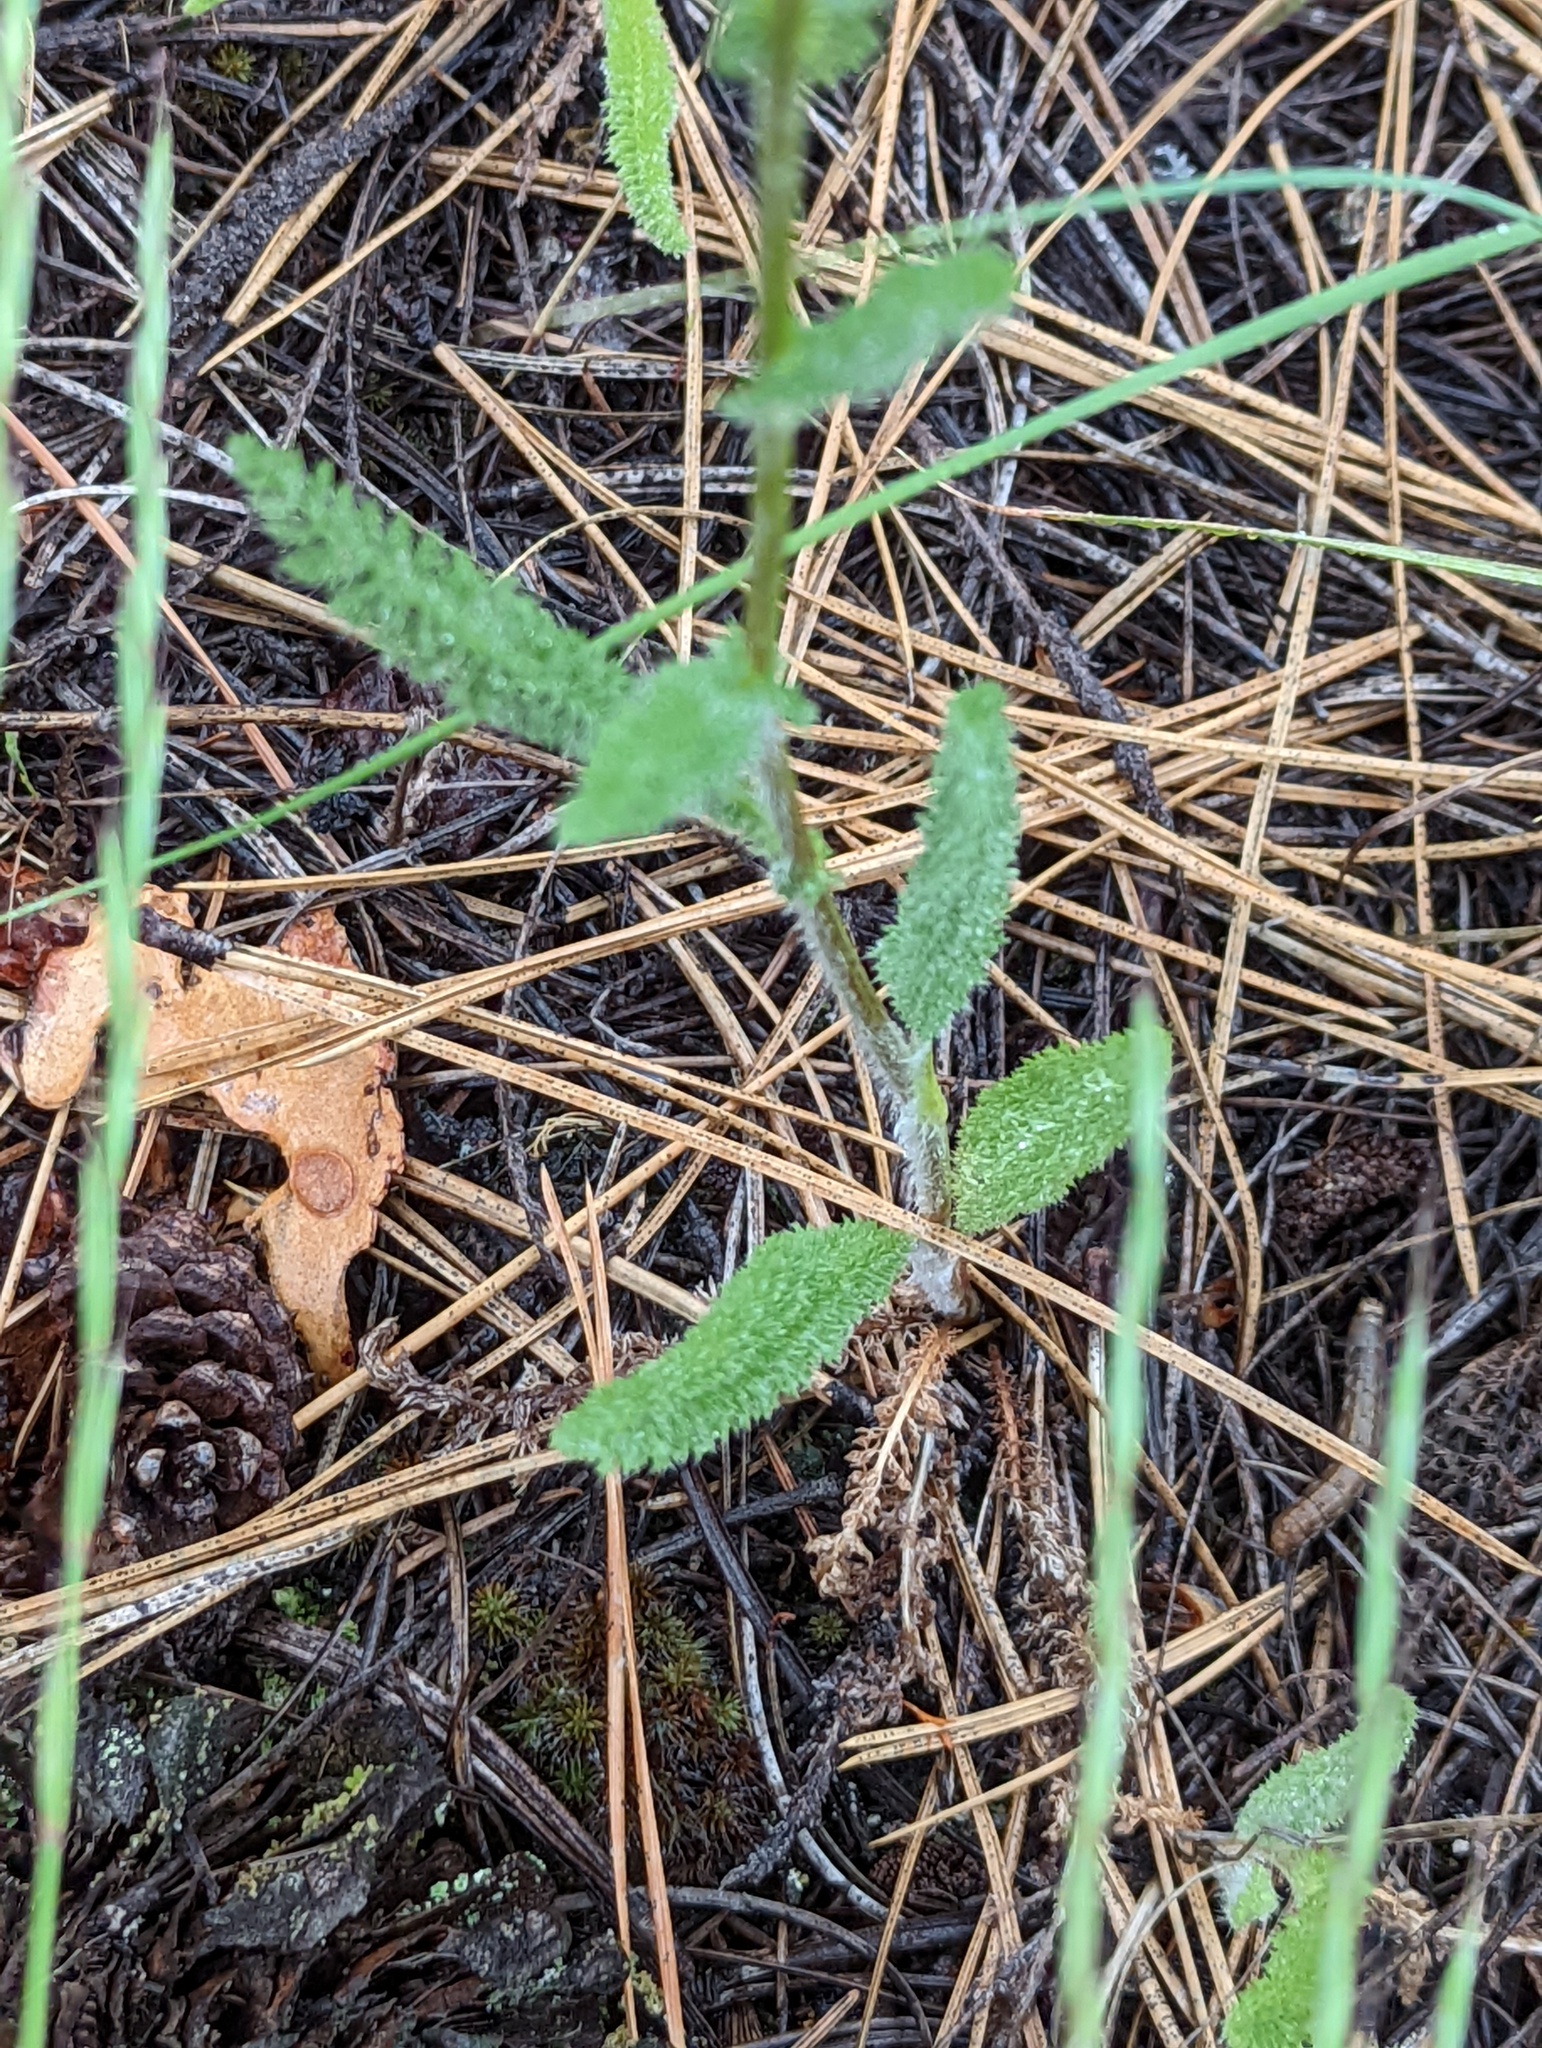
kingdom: Plantae
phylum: Tracheophyta
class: Magnoliopsida
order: Asterales
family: Asteraceae
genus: Achillea
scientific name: Achillea millefolium
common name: Yarrow
